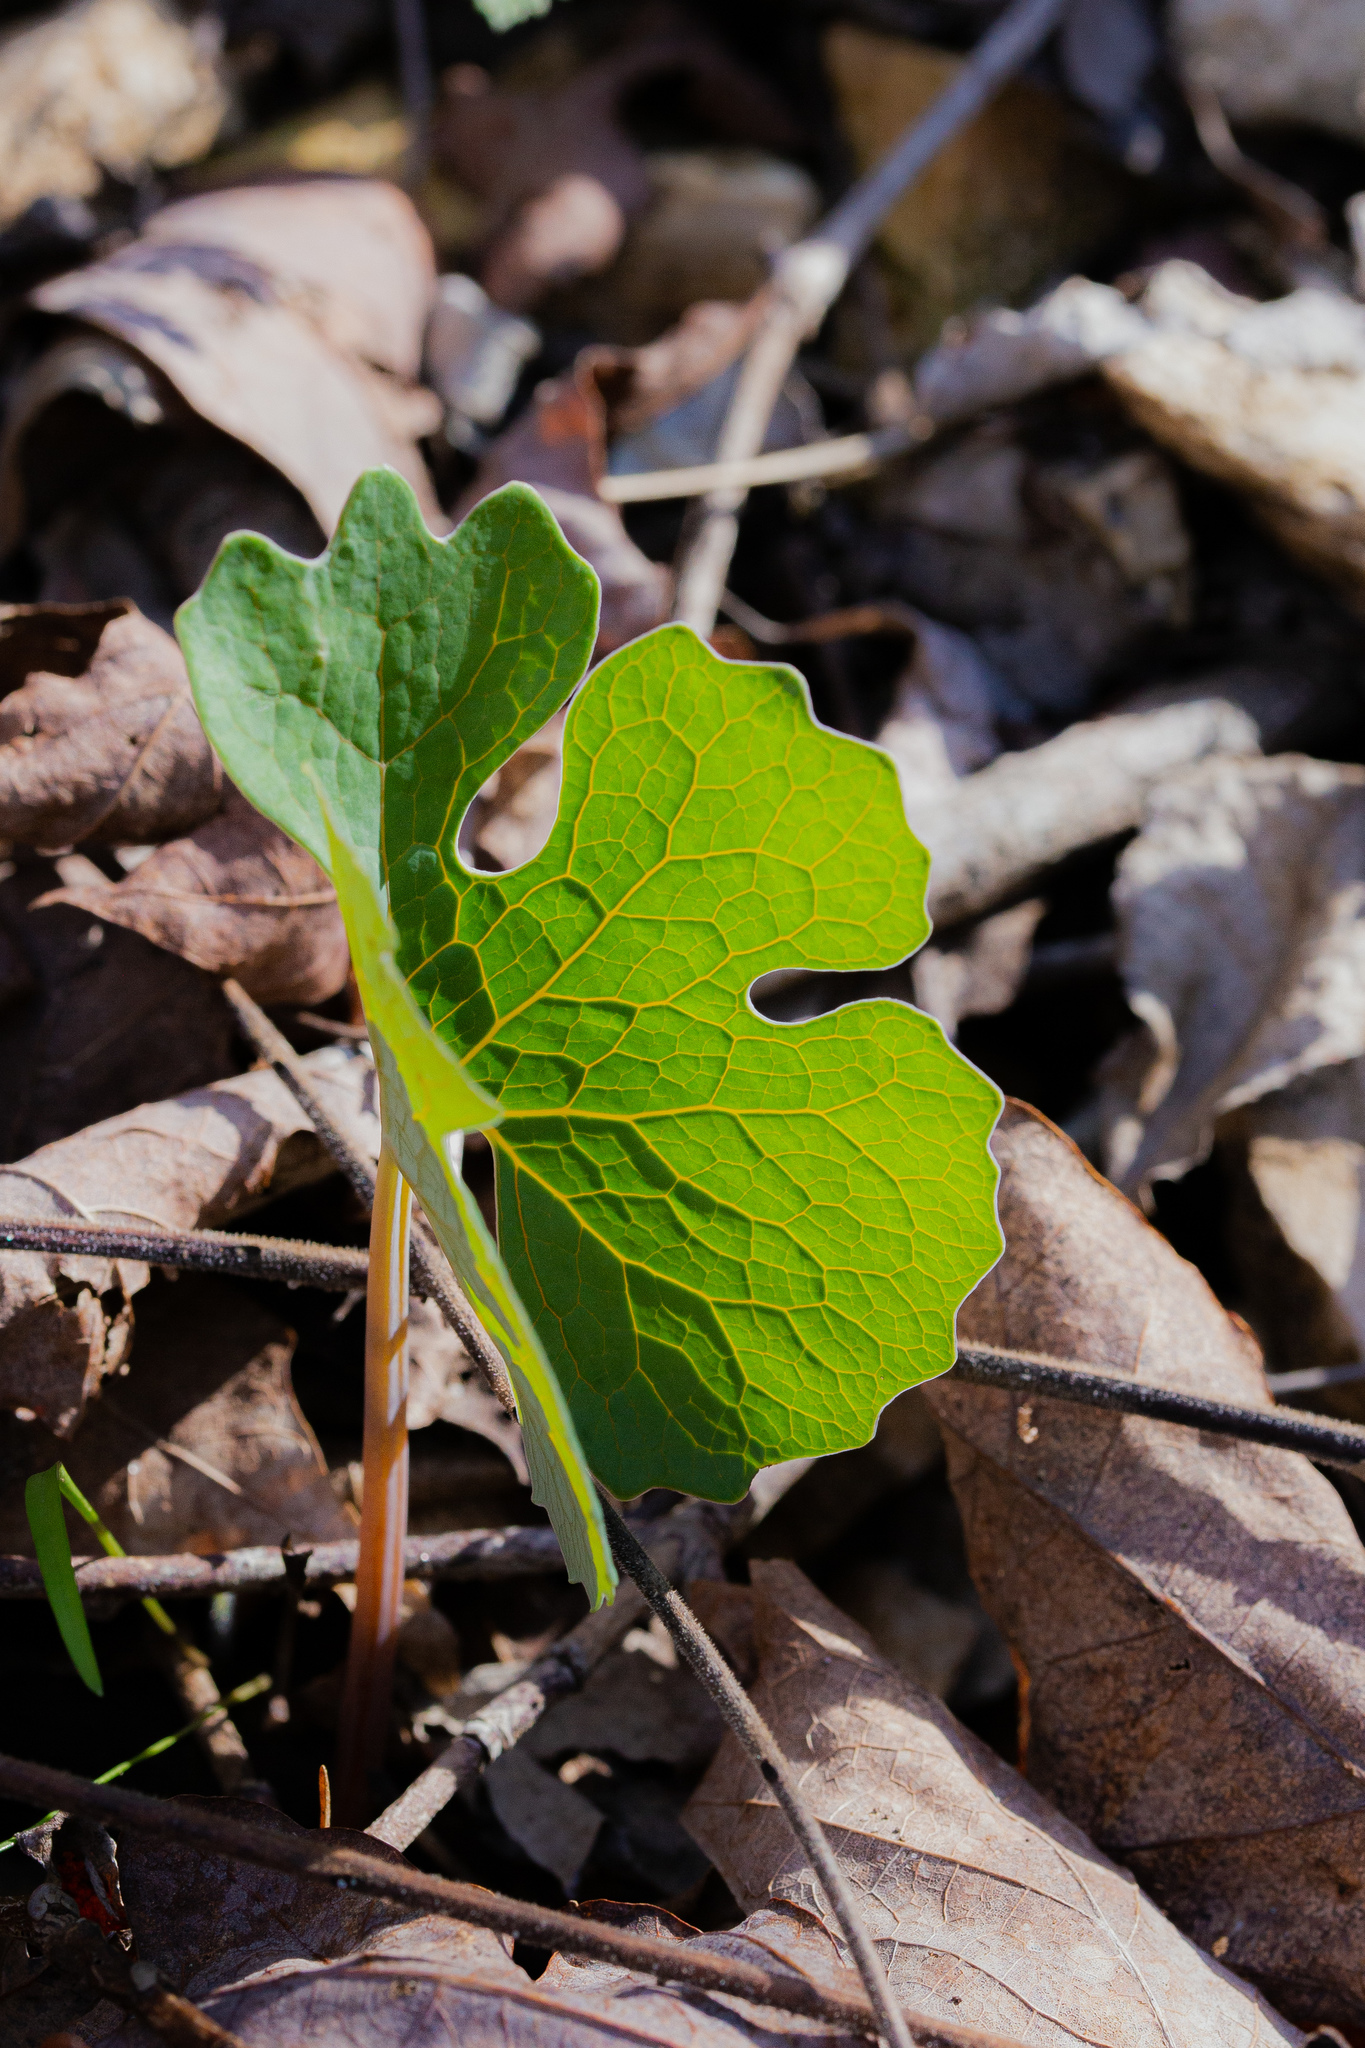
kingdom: Plantae
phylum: Tracheophyta
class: Magnoliopsida
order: Ranunculales
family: Papaveraceae
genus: Sanguinaria
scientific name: Sanguinaria canadensis
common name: Bloodroot
